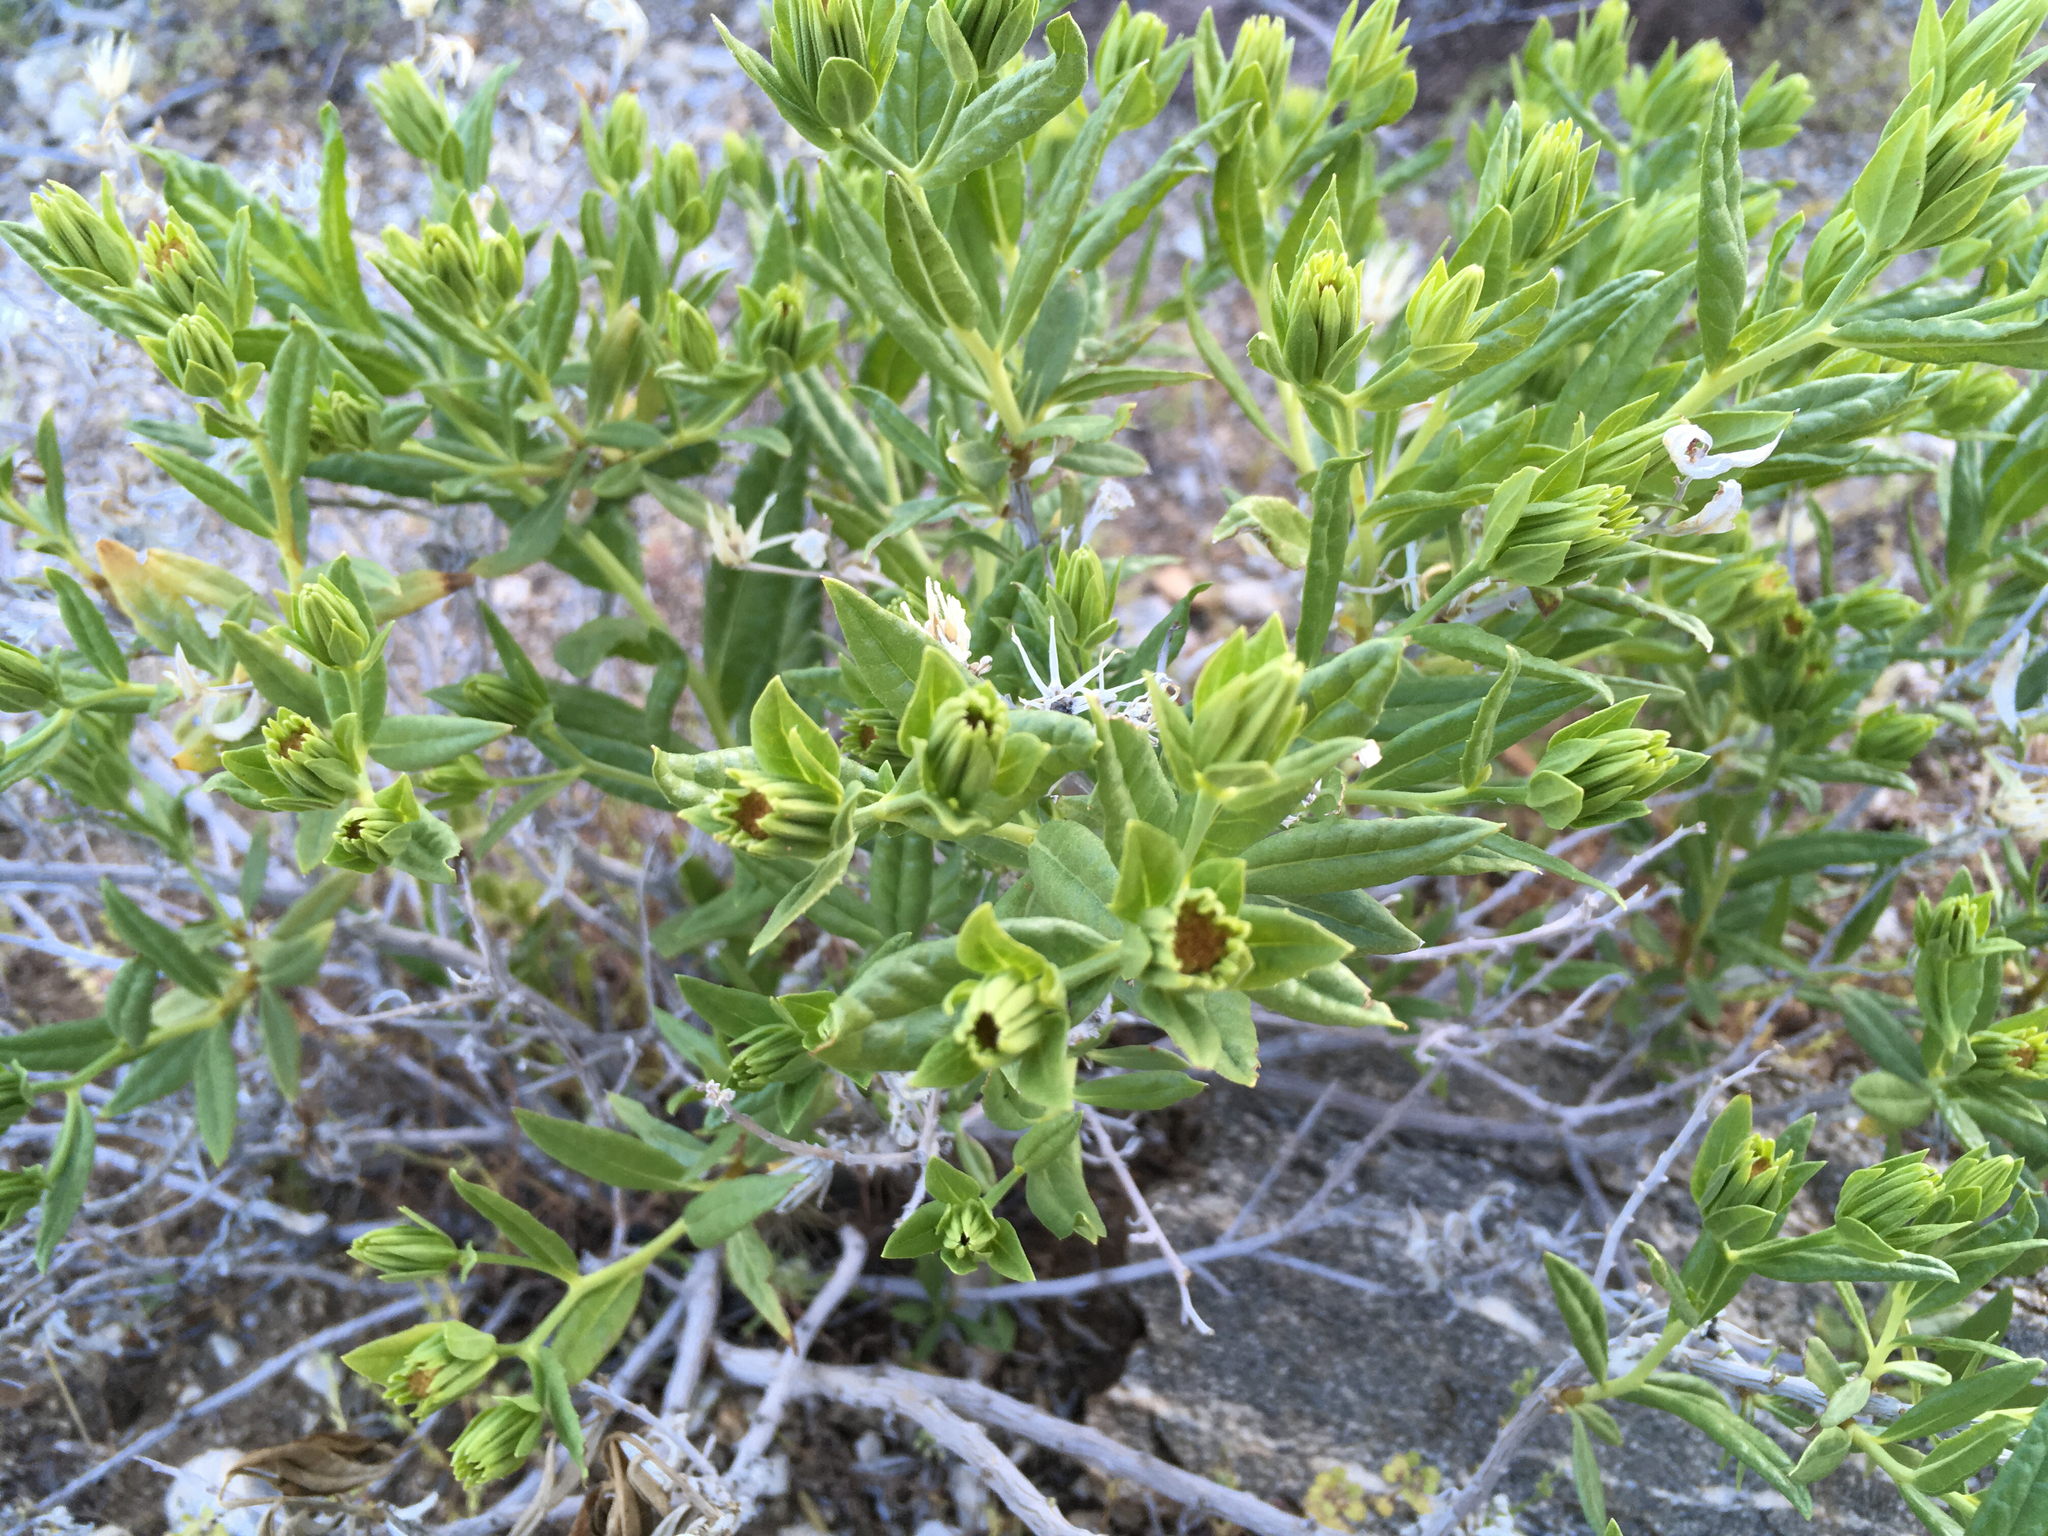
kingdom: Plantae
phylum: Tracheophyta
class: Magnoliopsida
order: Asterales
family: Asteraceae
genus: Trixis
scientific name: Trixis californica
